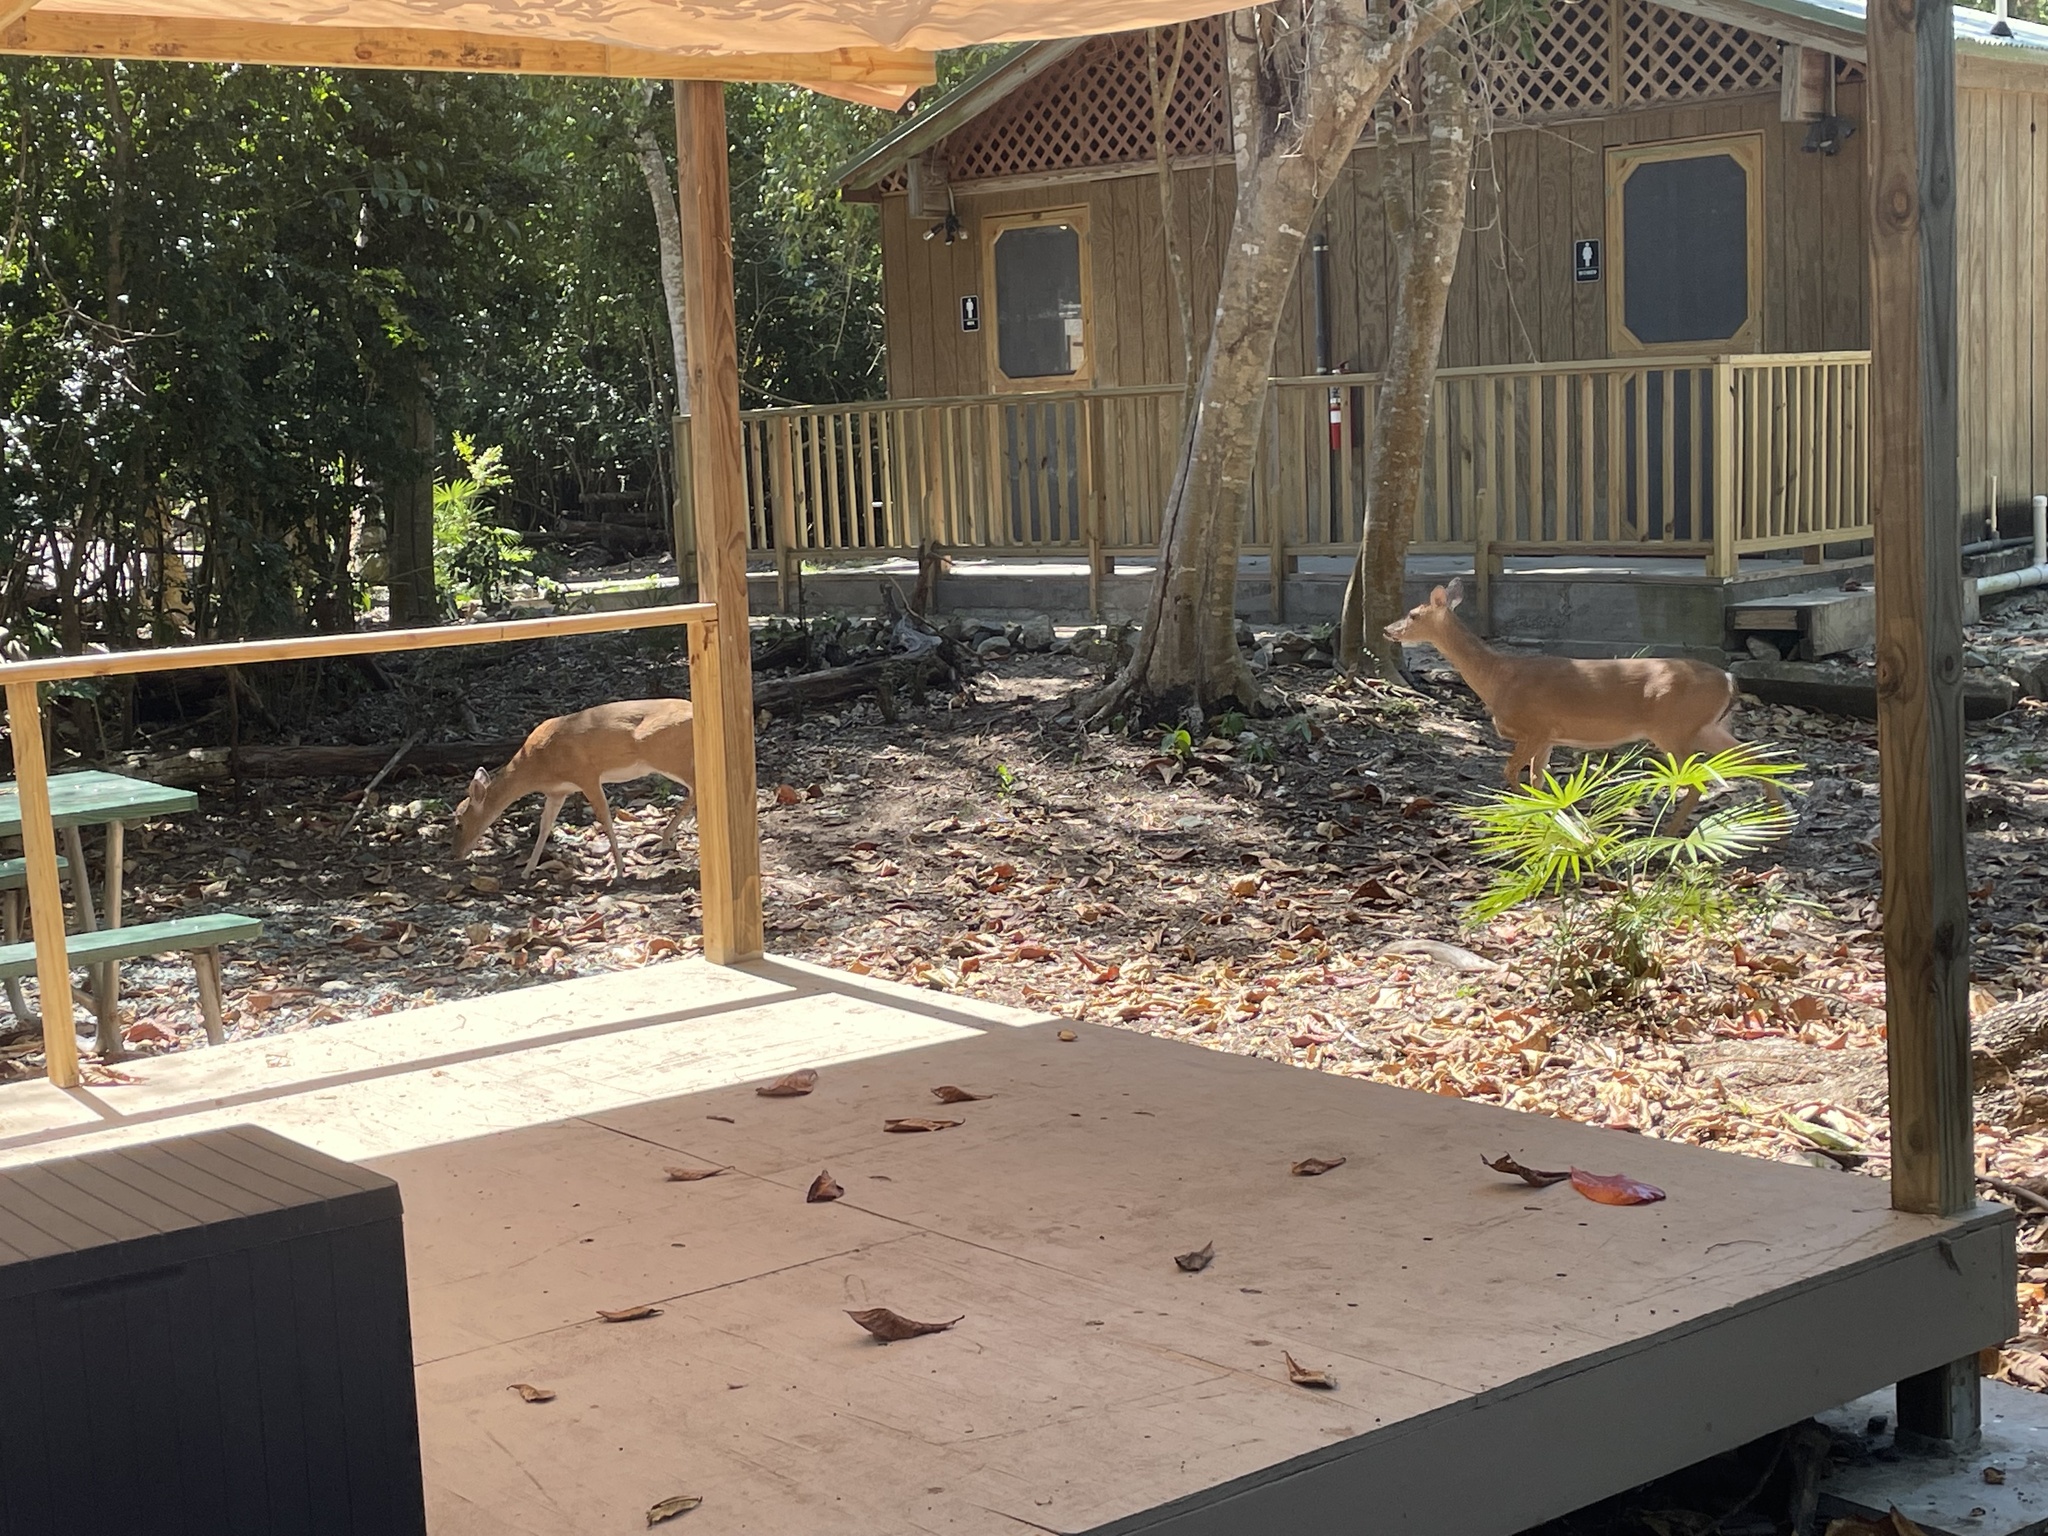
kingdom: Animalia
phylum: Chordata
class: Mammalia
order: Artiodactyla
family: Cervidae
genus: Odocoileus
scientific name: Odocoileus virginianus
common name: White-tailed deer
